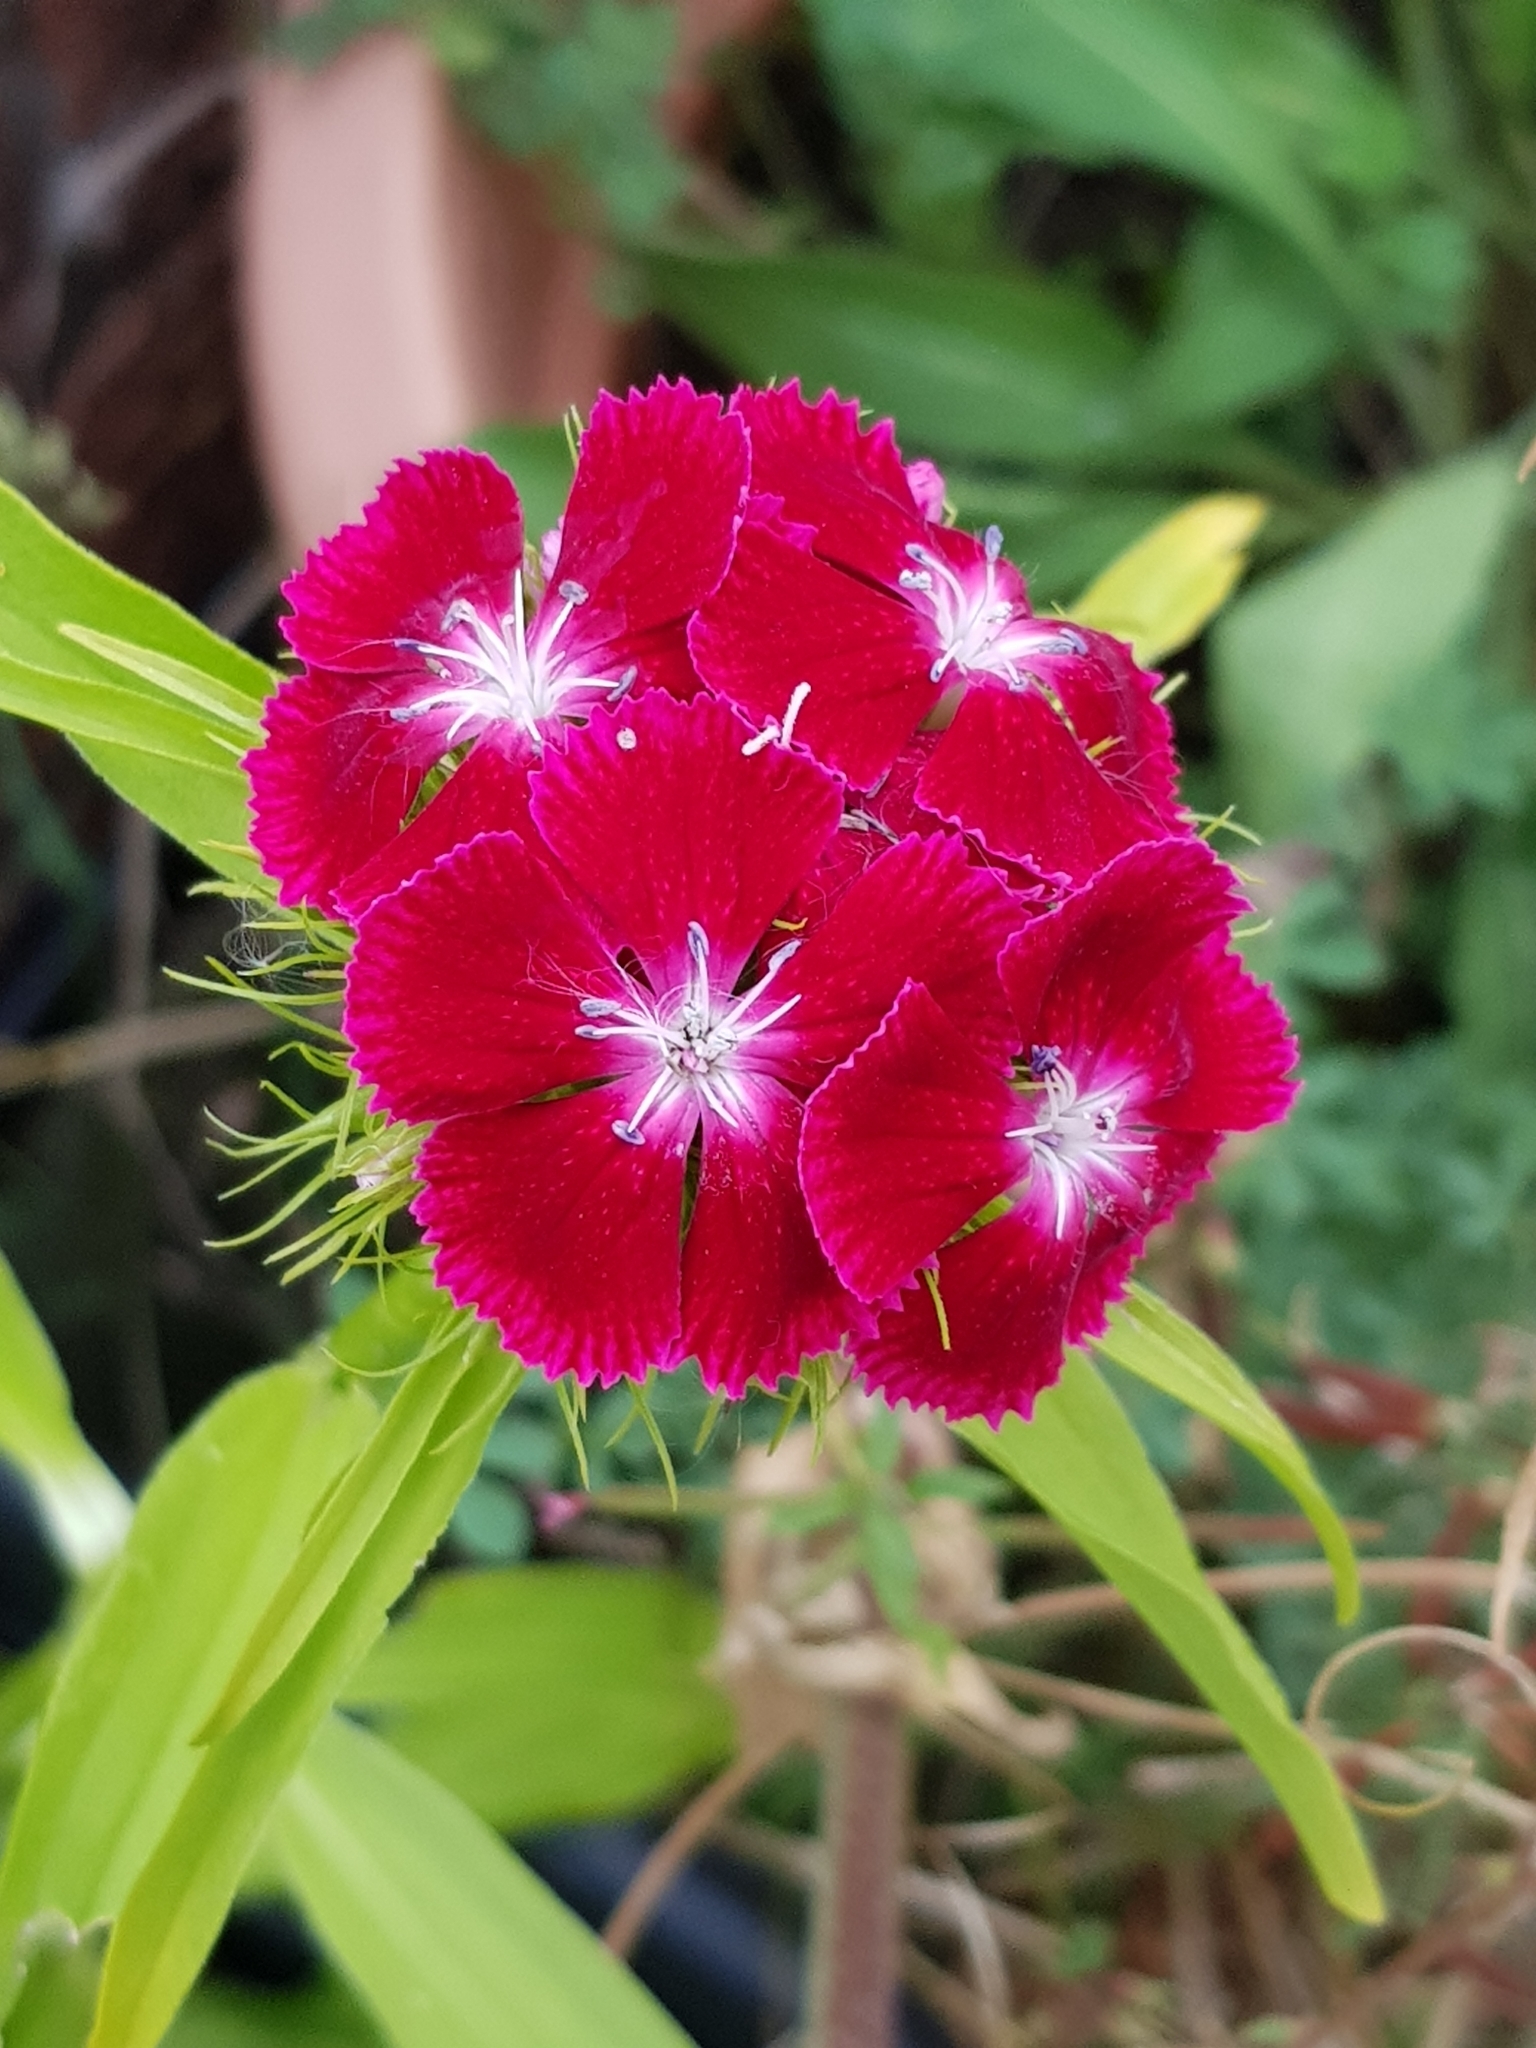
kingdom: Plantae
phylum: Tracheophyta
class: Magnoliopsida
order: Caryophyllales
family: Caryophyllaceae
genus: Dianthus
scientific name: Dianthus barbatus
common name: Sweet-william
